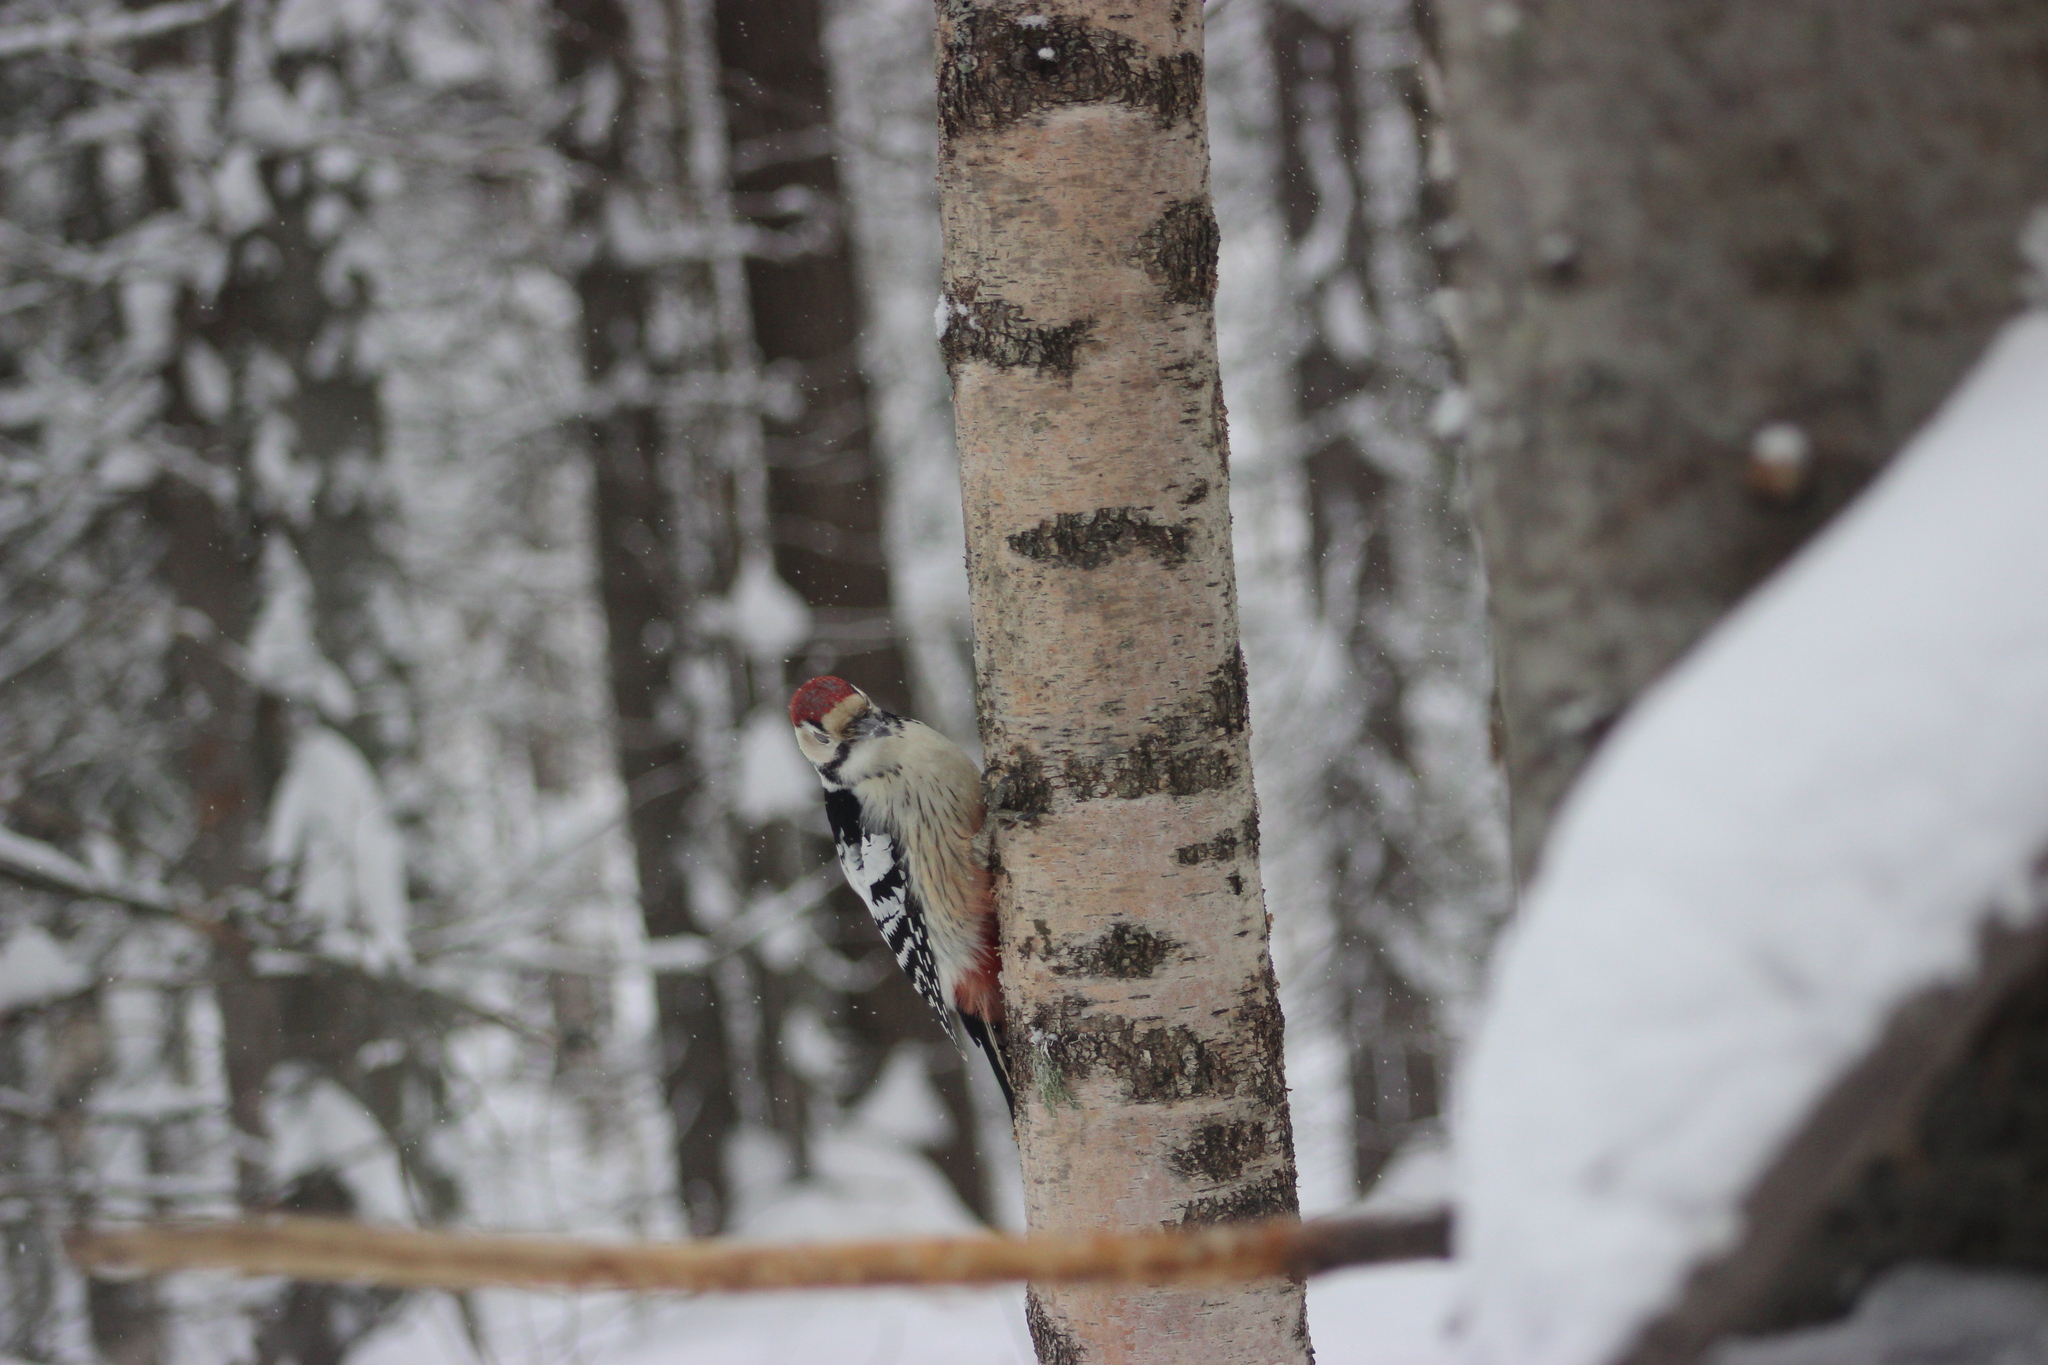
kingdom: Animalia
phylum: Chordata
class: Aves
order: Piciformes
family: Picidae
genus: Dendrocopos
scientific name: Dendrocopos leucotos
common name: White-backed woodpecker
